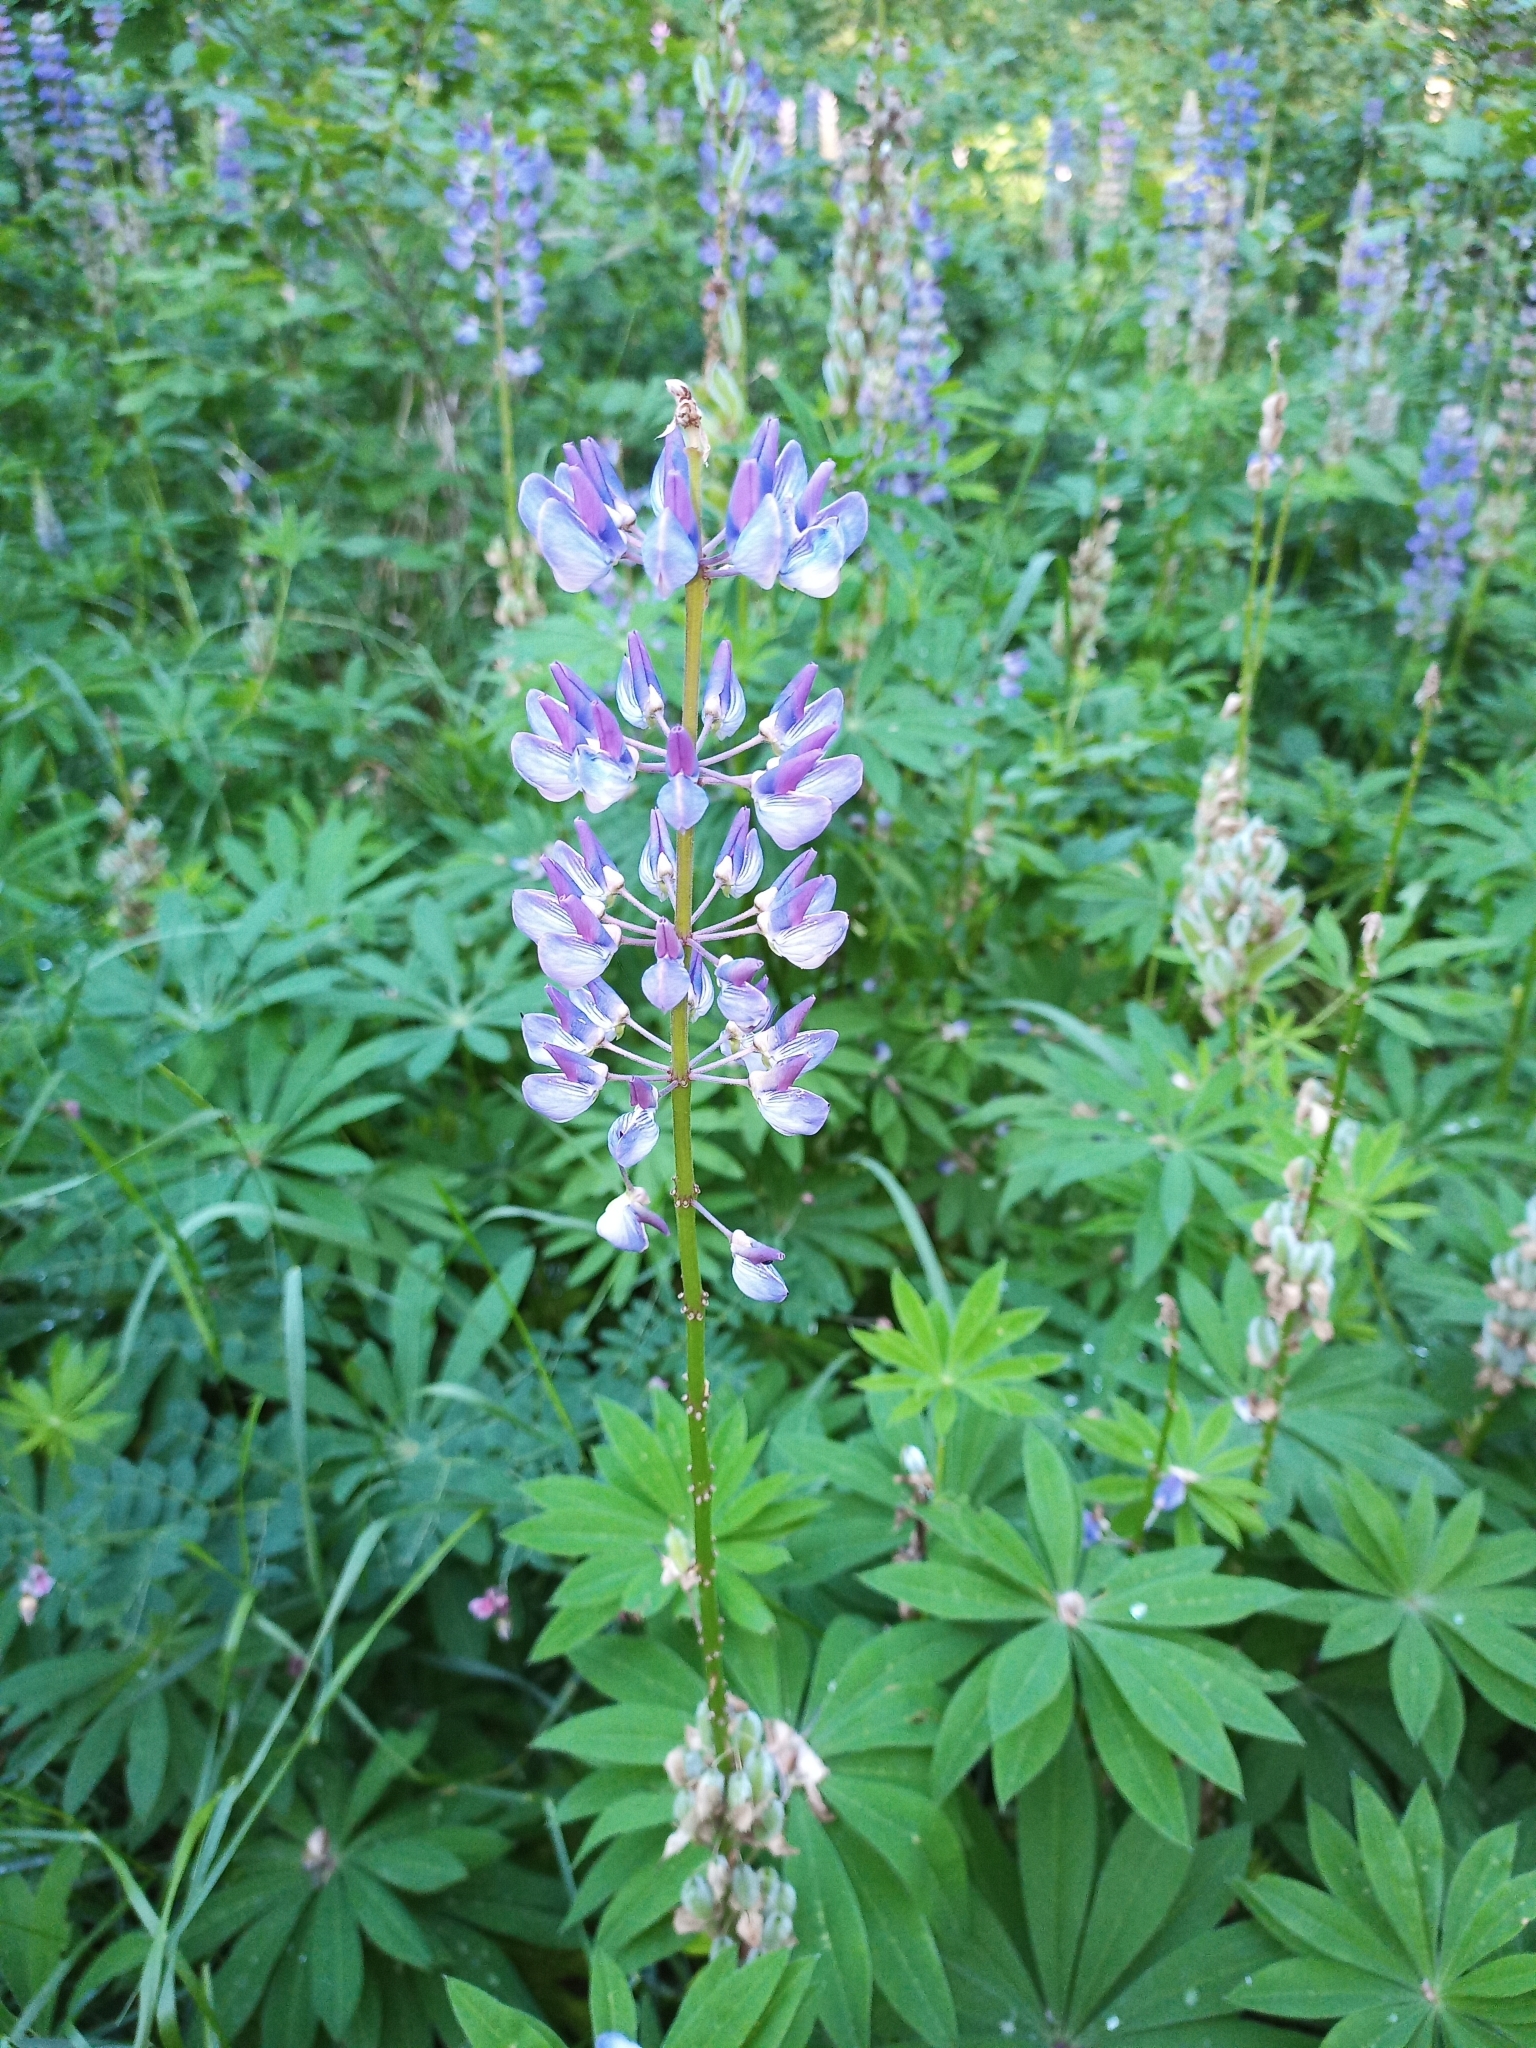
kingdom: Plantae
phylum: Tracheophyta
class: Magnoliopsida
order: Fabales
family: Fabaceae
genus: Lupinus
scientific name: Lupinus polyphyllus
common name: Garden lupin
